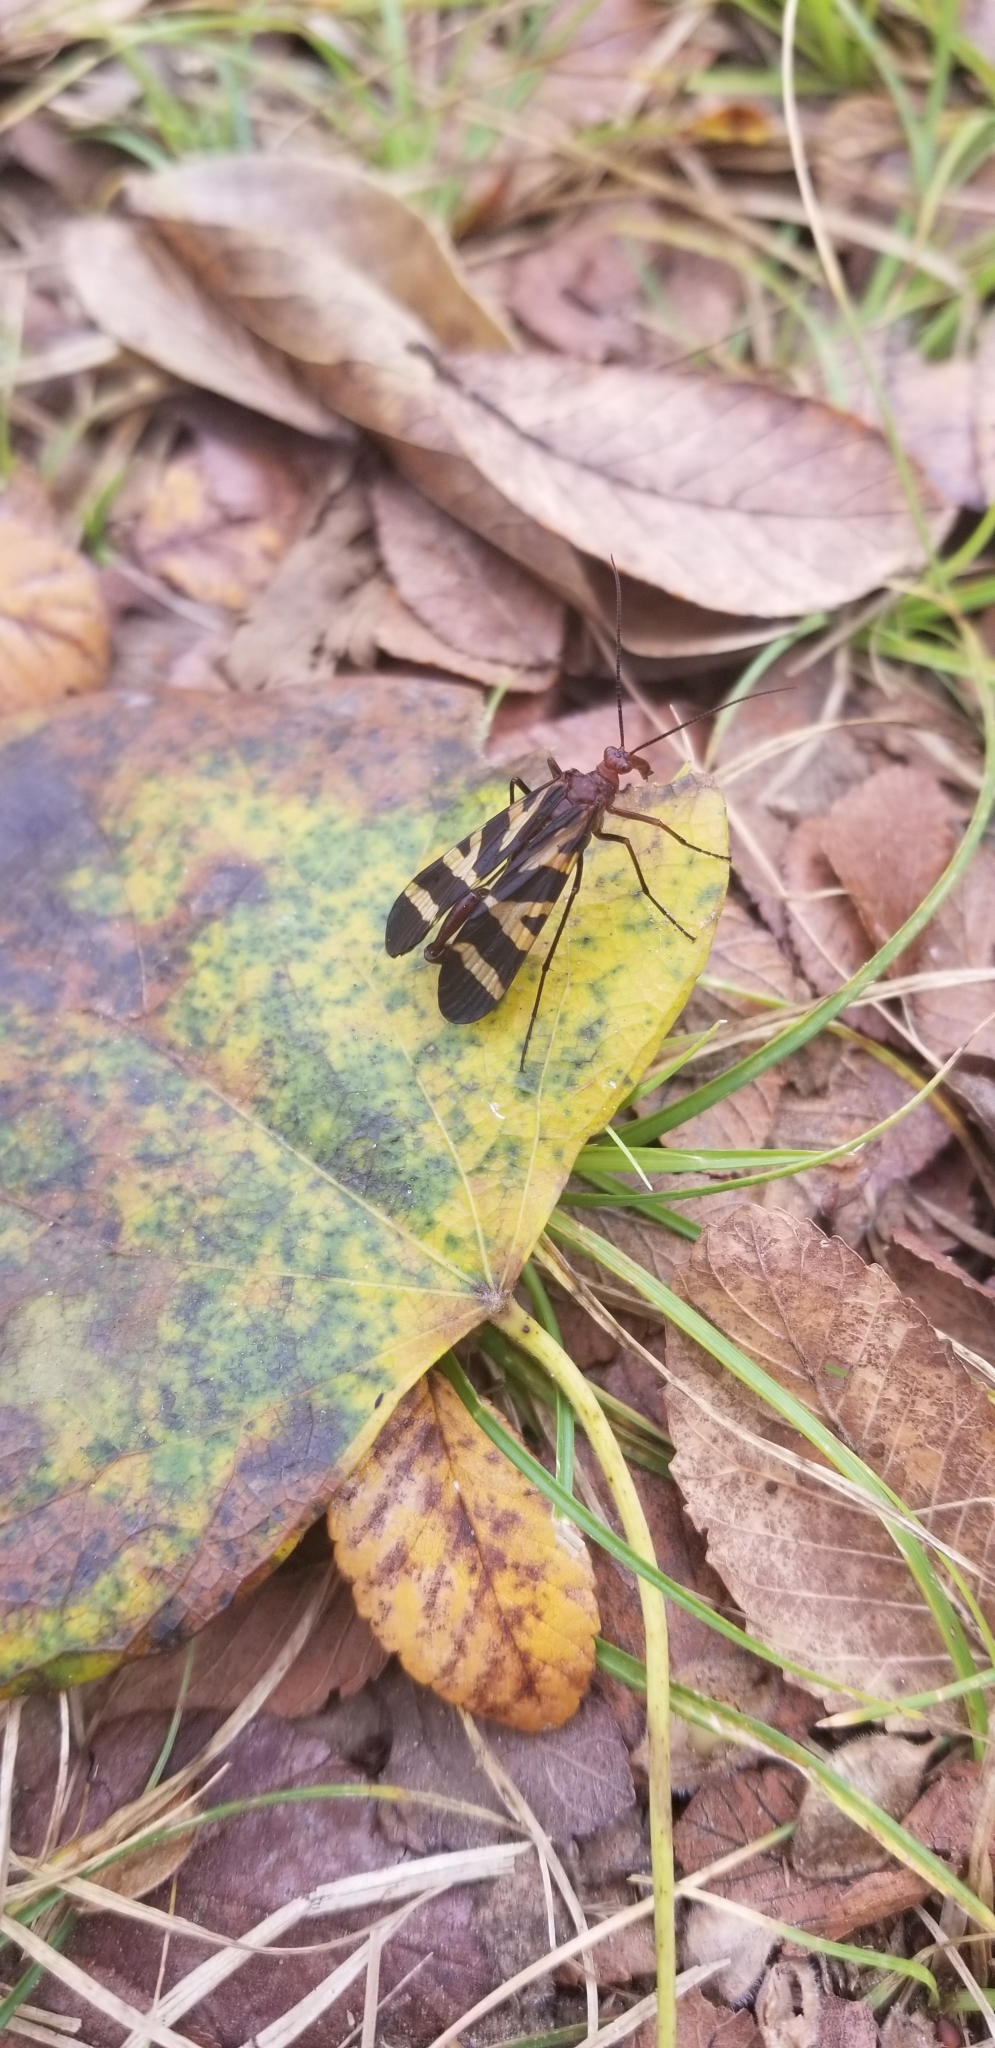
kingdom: Animalia
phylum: Arthropoda
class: Insecta
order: Mecoptera
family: Panorpidae
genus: Panorpa
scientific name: Panorpa nuptialis
